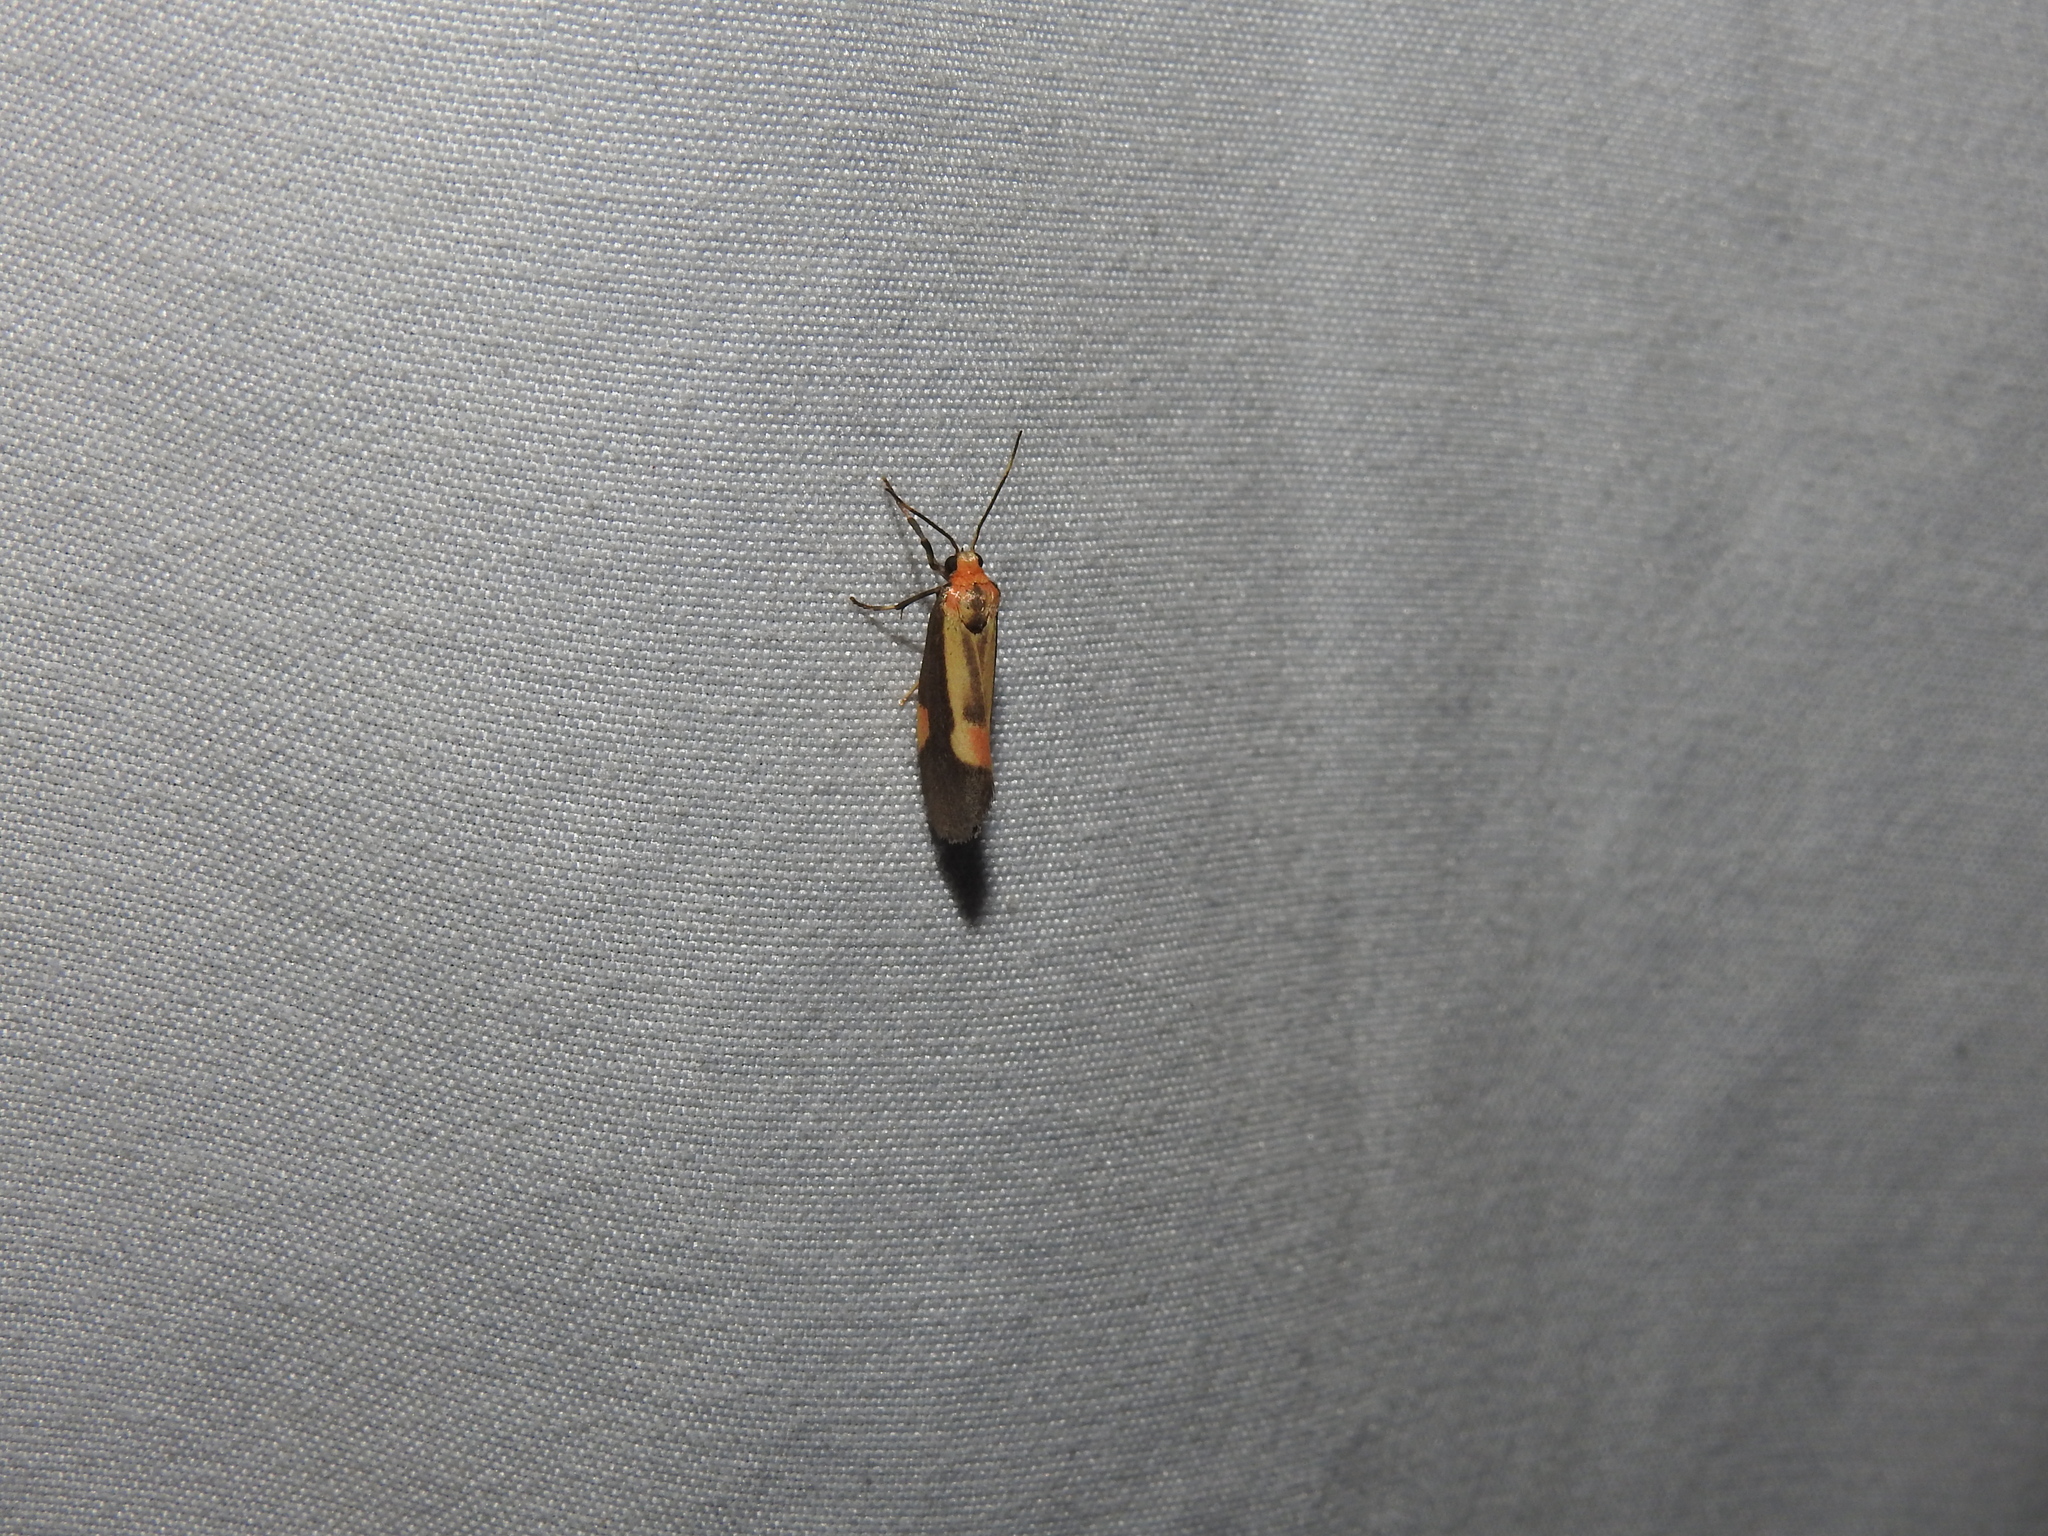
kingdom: Animalia
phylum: Arthropoda
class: Insecta
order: Lepidoptera
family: Erebidae
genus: Cisthene
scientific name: Cisthene packardii
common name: Packard's lichen moth
